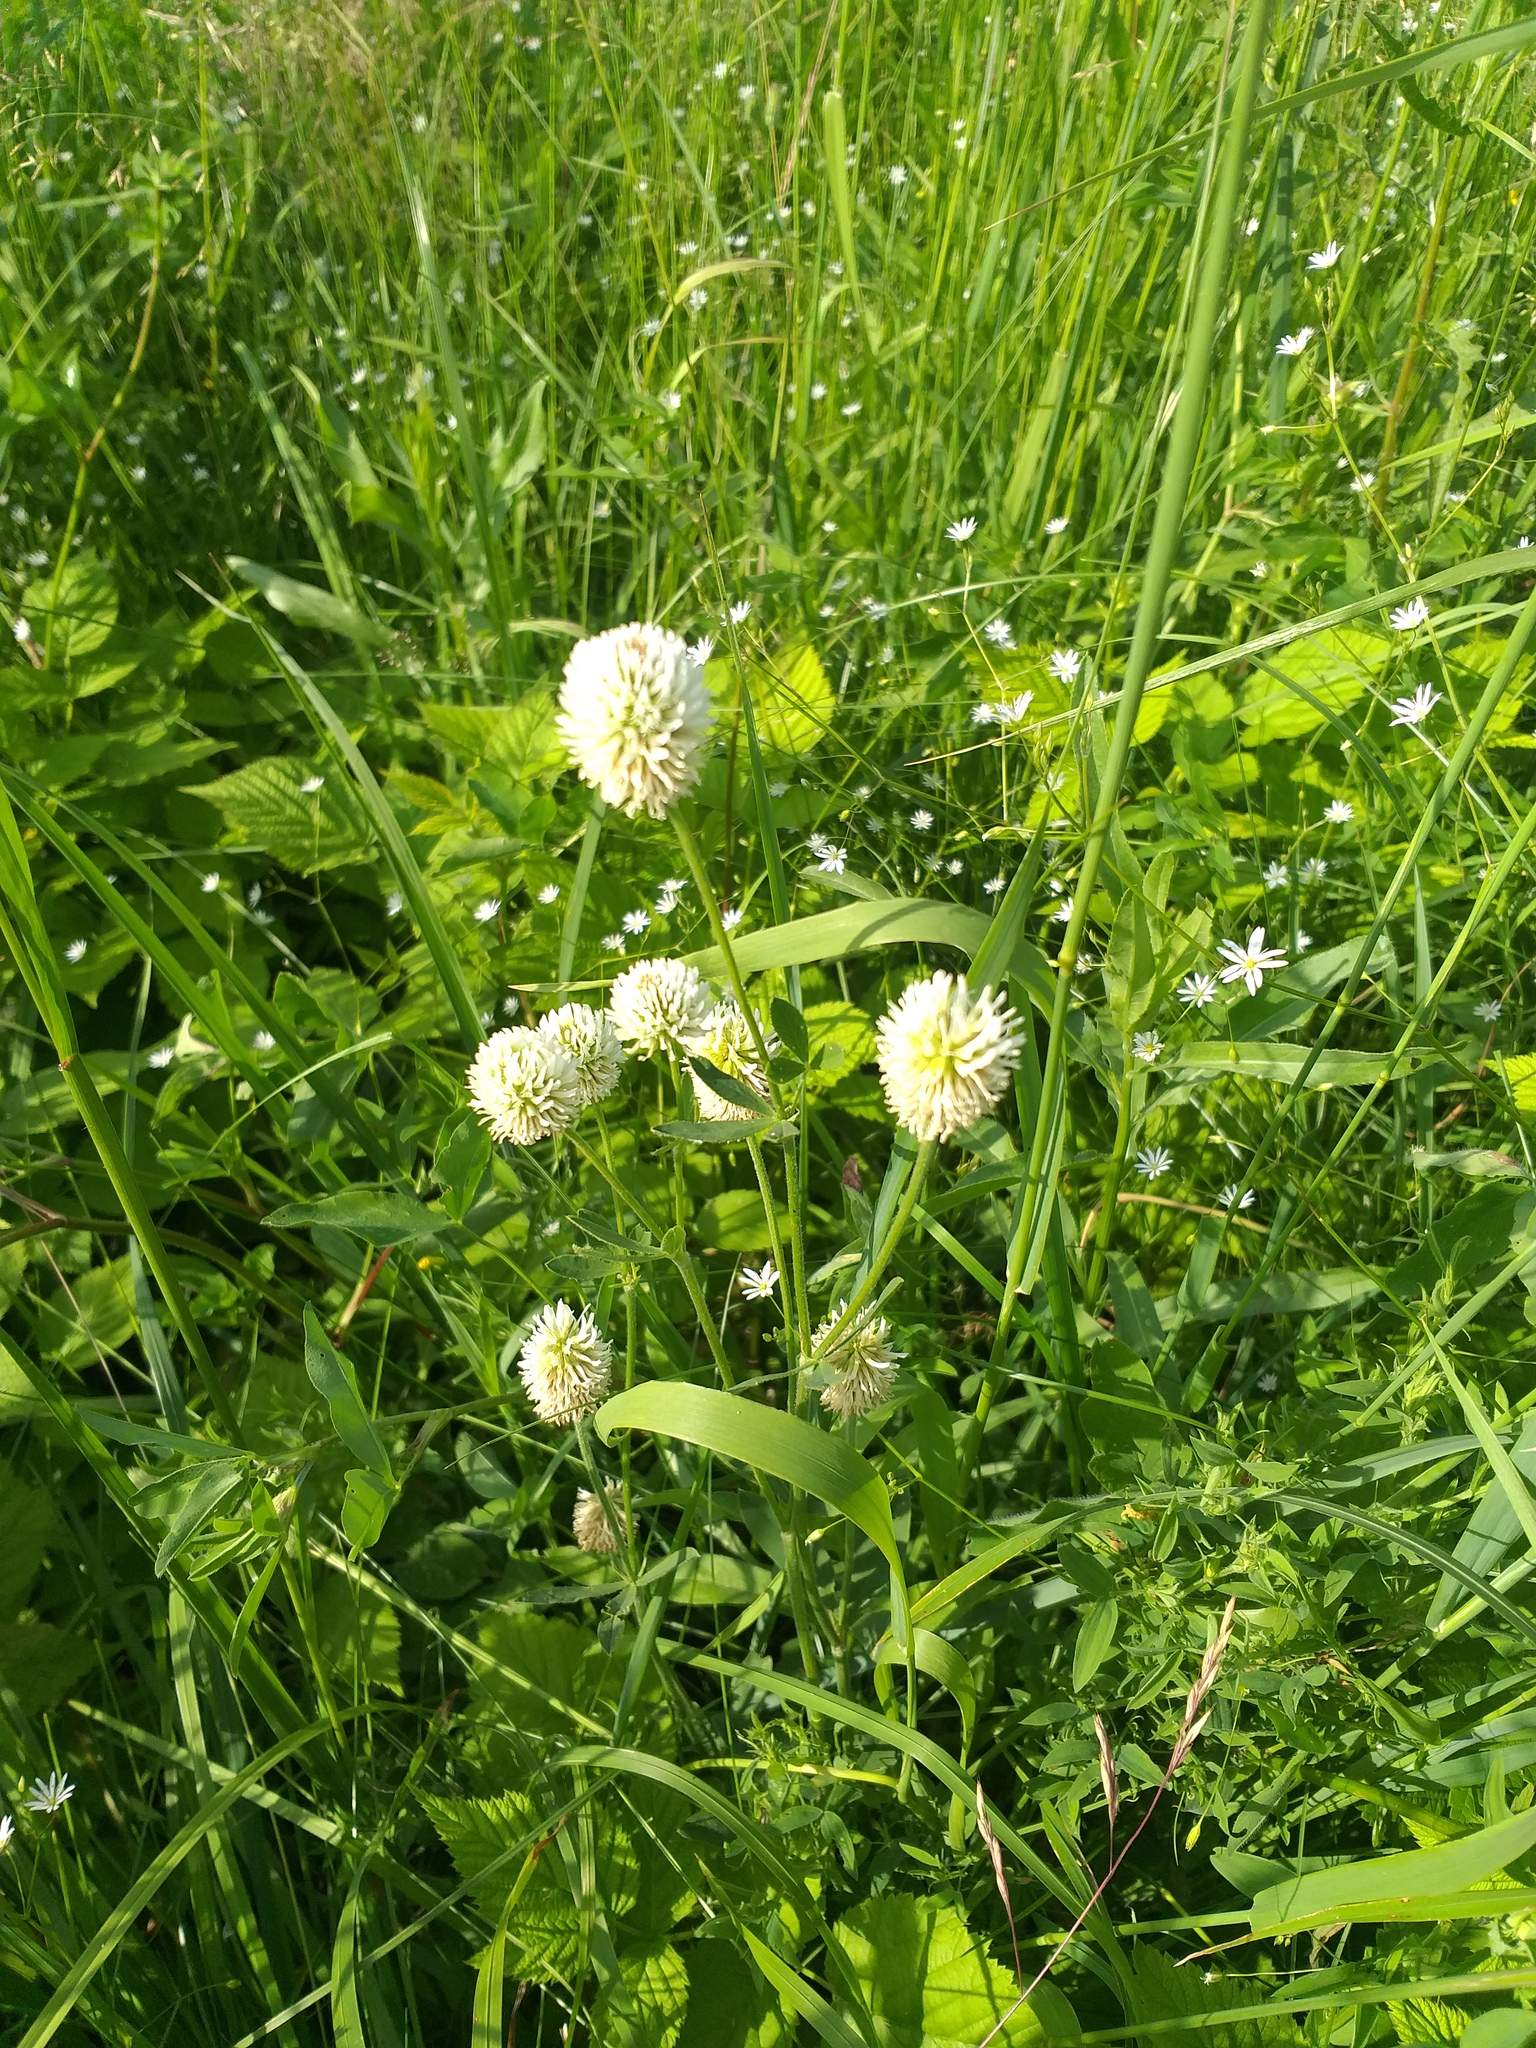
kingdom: Plantae
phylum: Tracheophyta
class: Magnoliopsida
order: Fabales
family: Fabaceae
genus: Trifolium
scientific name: Trifolium montanum
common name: Mountain clover
